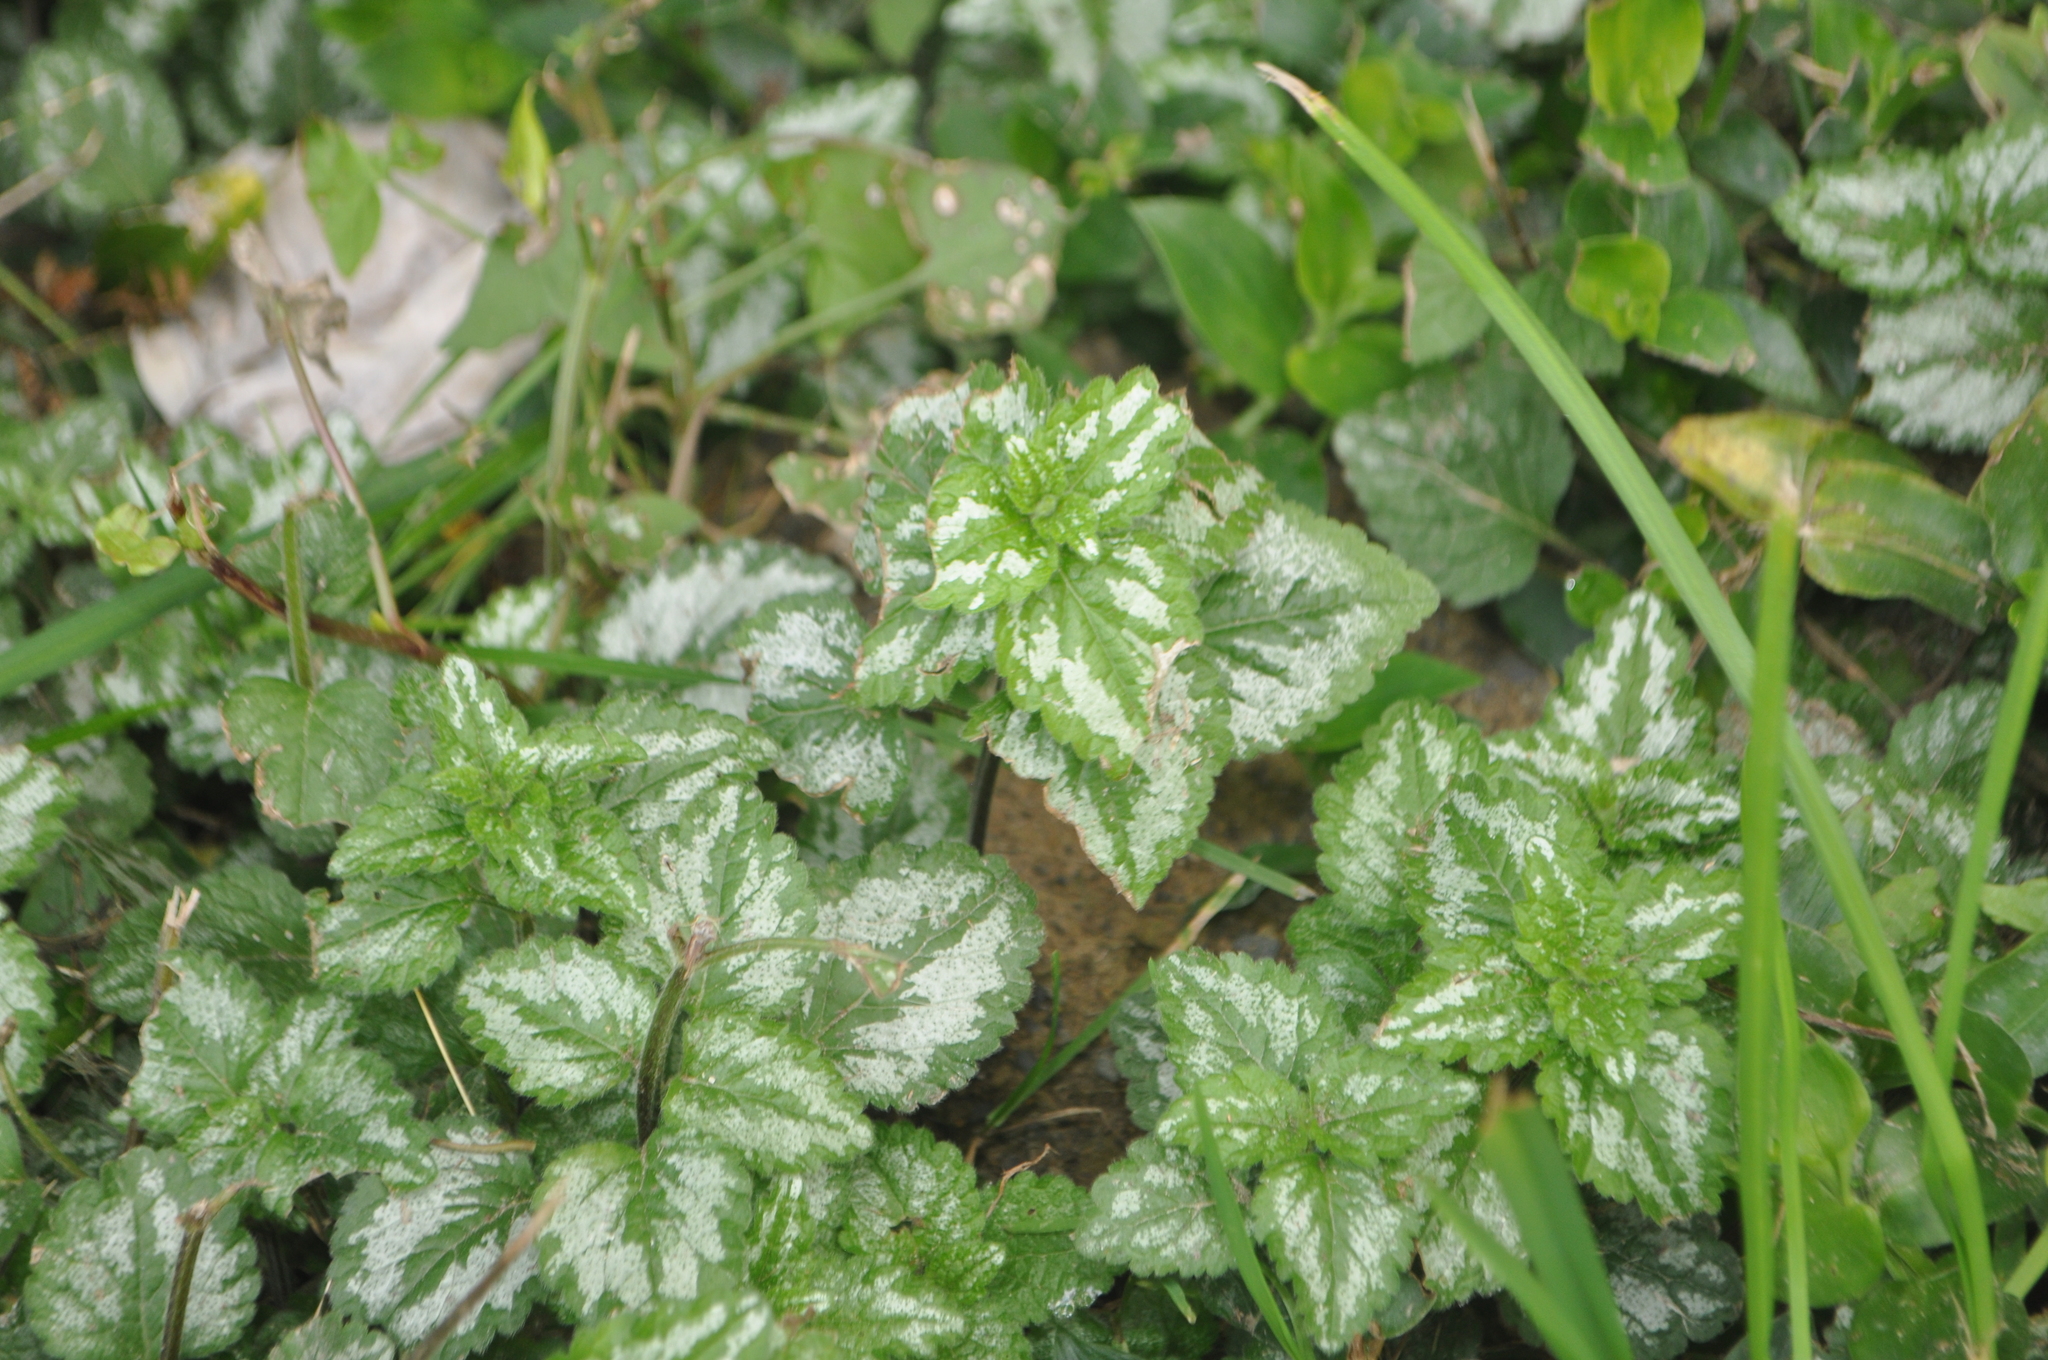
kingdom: Plantae
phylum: Tracheophyta
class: Magnoliopsida
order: Lamiales
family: Lamiaceae
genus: Lamium
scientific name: Lamium galeobdolon
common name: Yellow archangel
